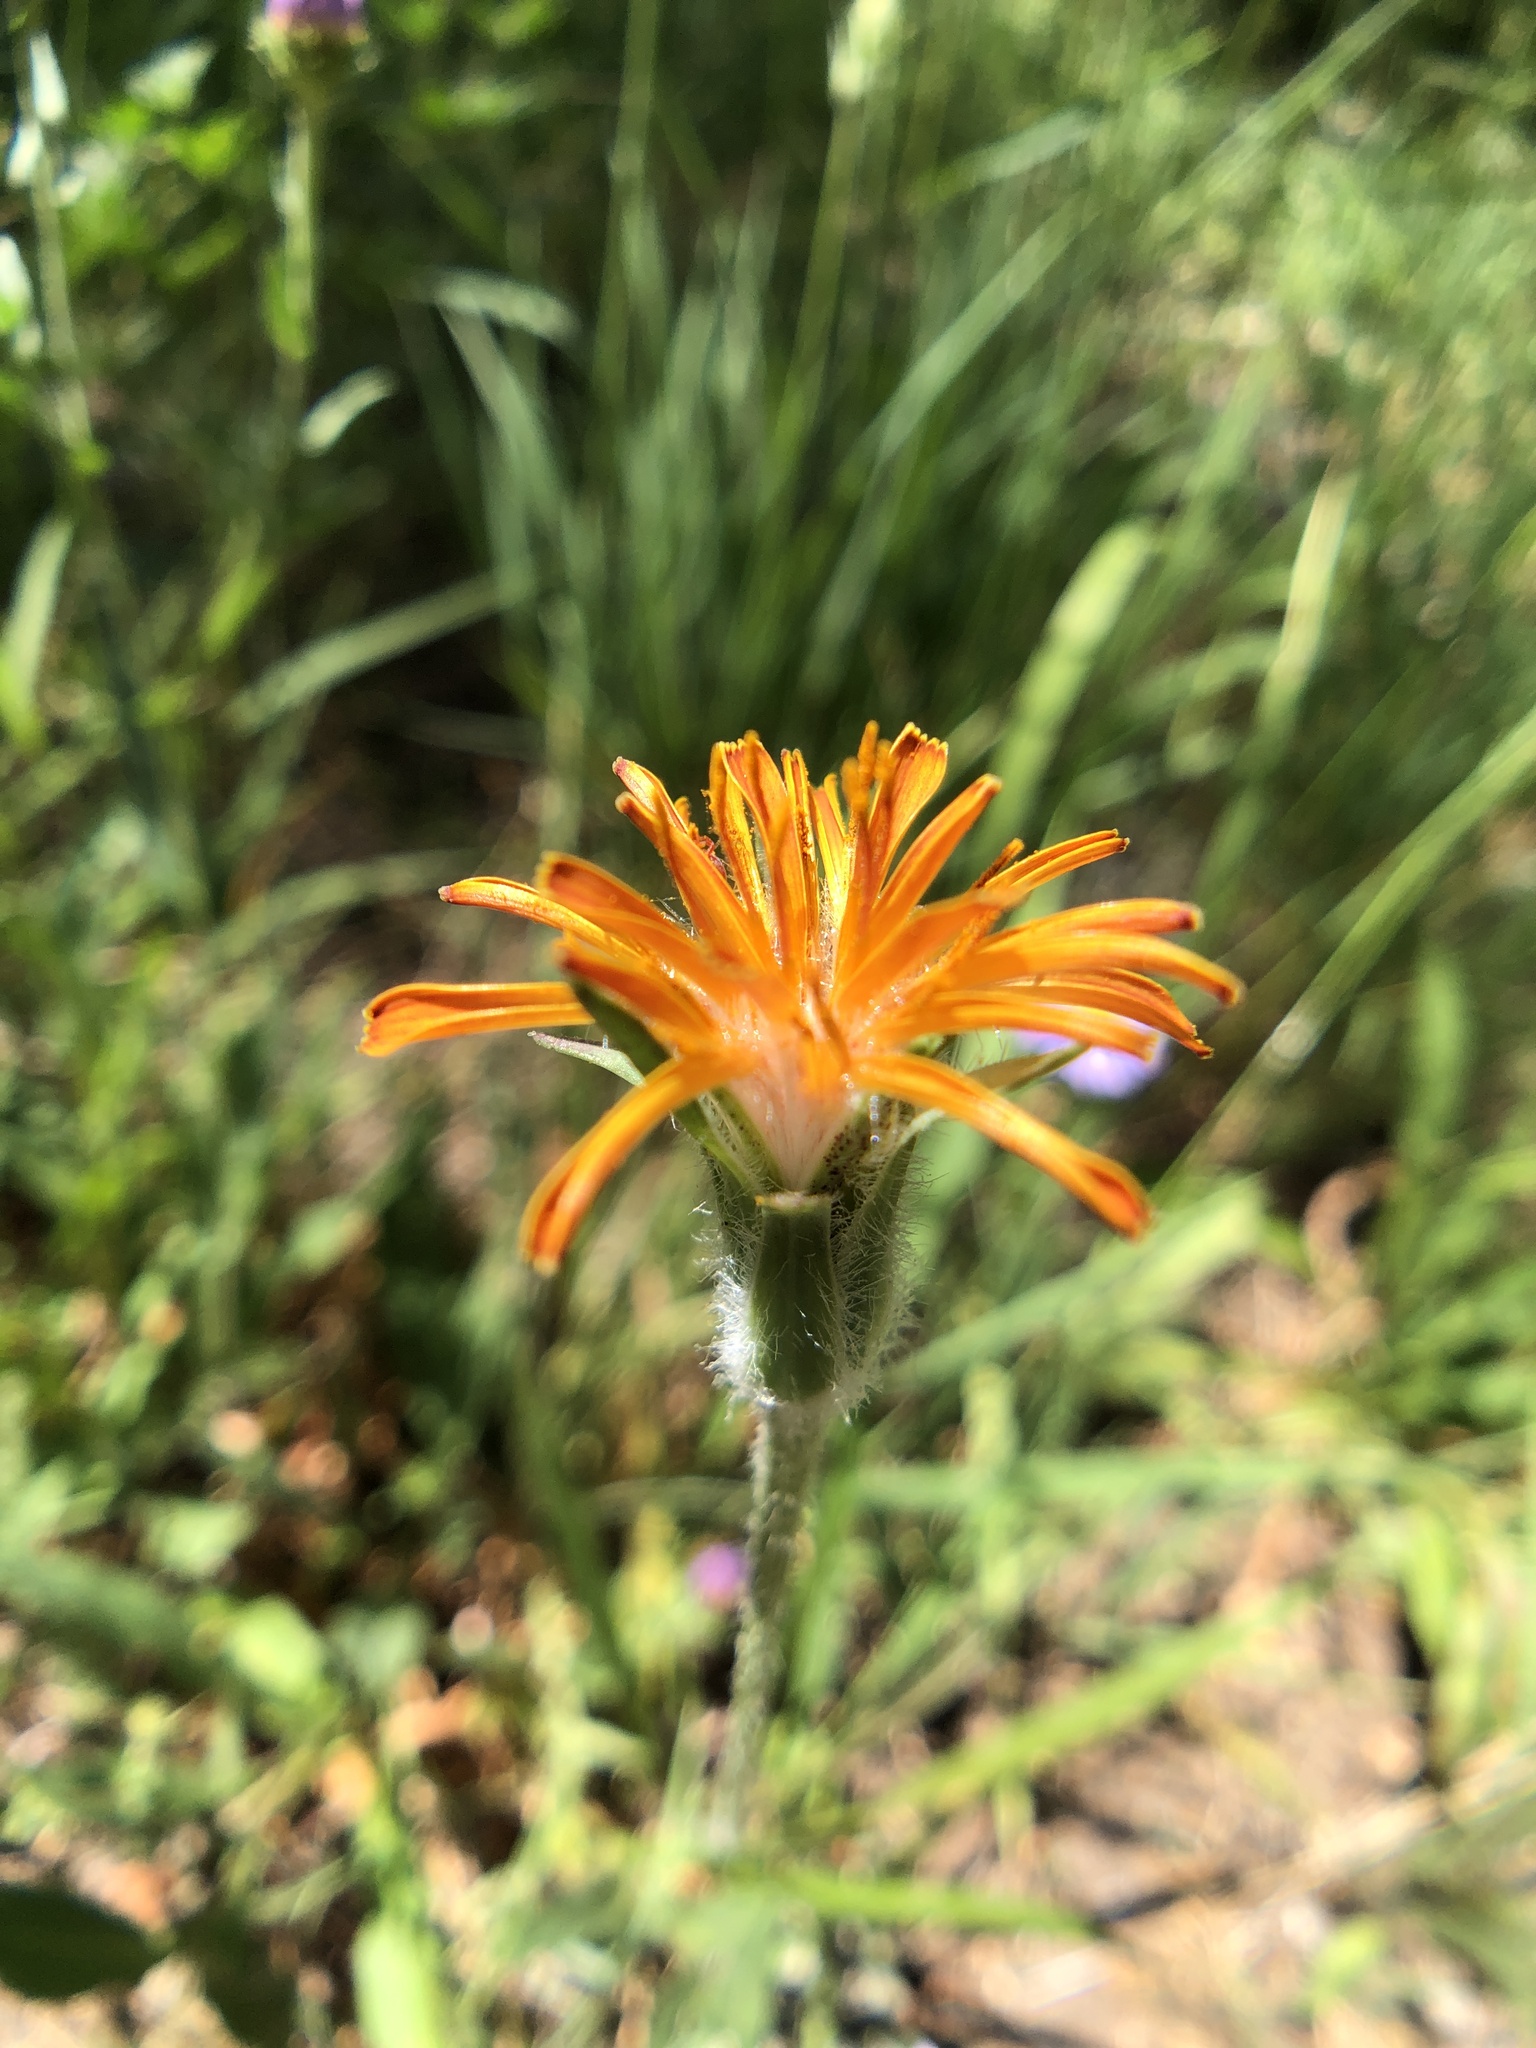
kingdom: Plantae
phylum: Tracheophyta
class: Magnoliopsida
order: Asterales
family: Asteraceae
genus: Agoseris
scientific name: Agoseris aurantiaca
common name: Mountain agoseris
